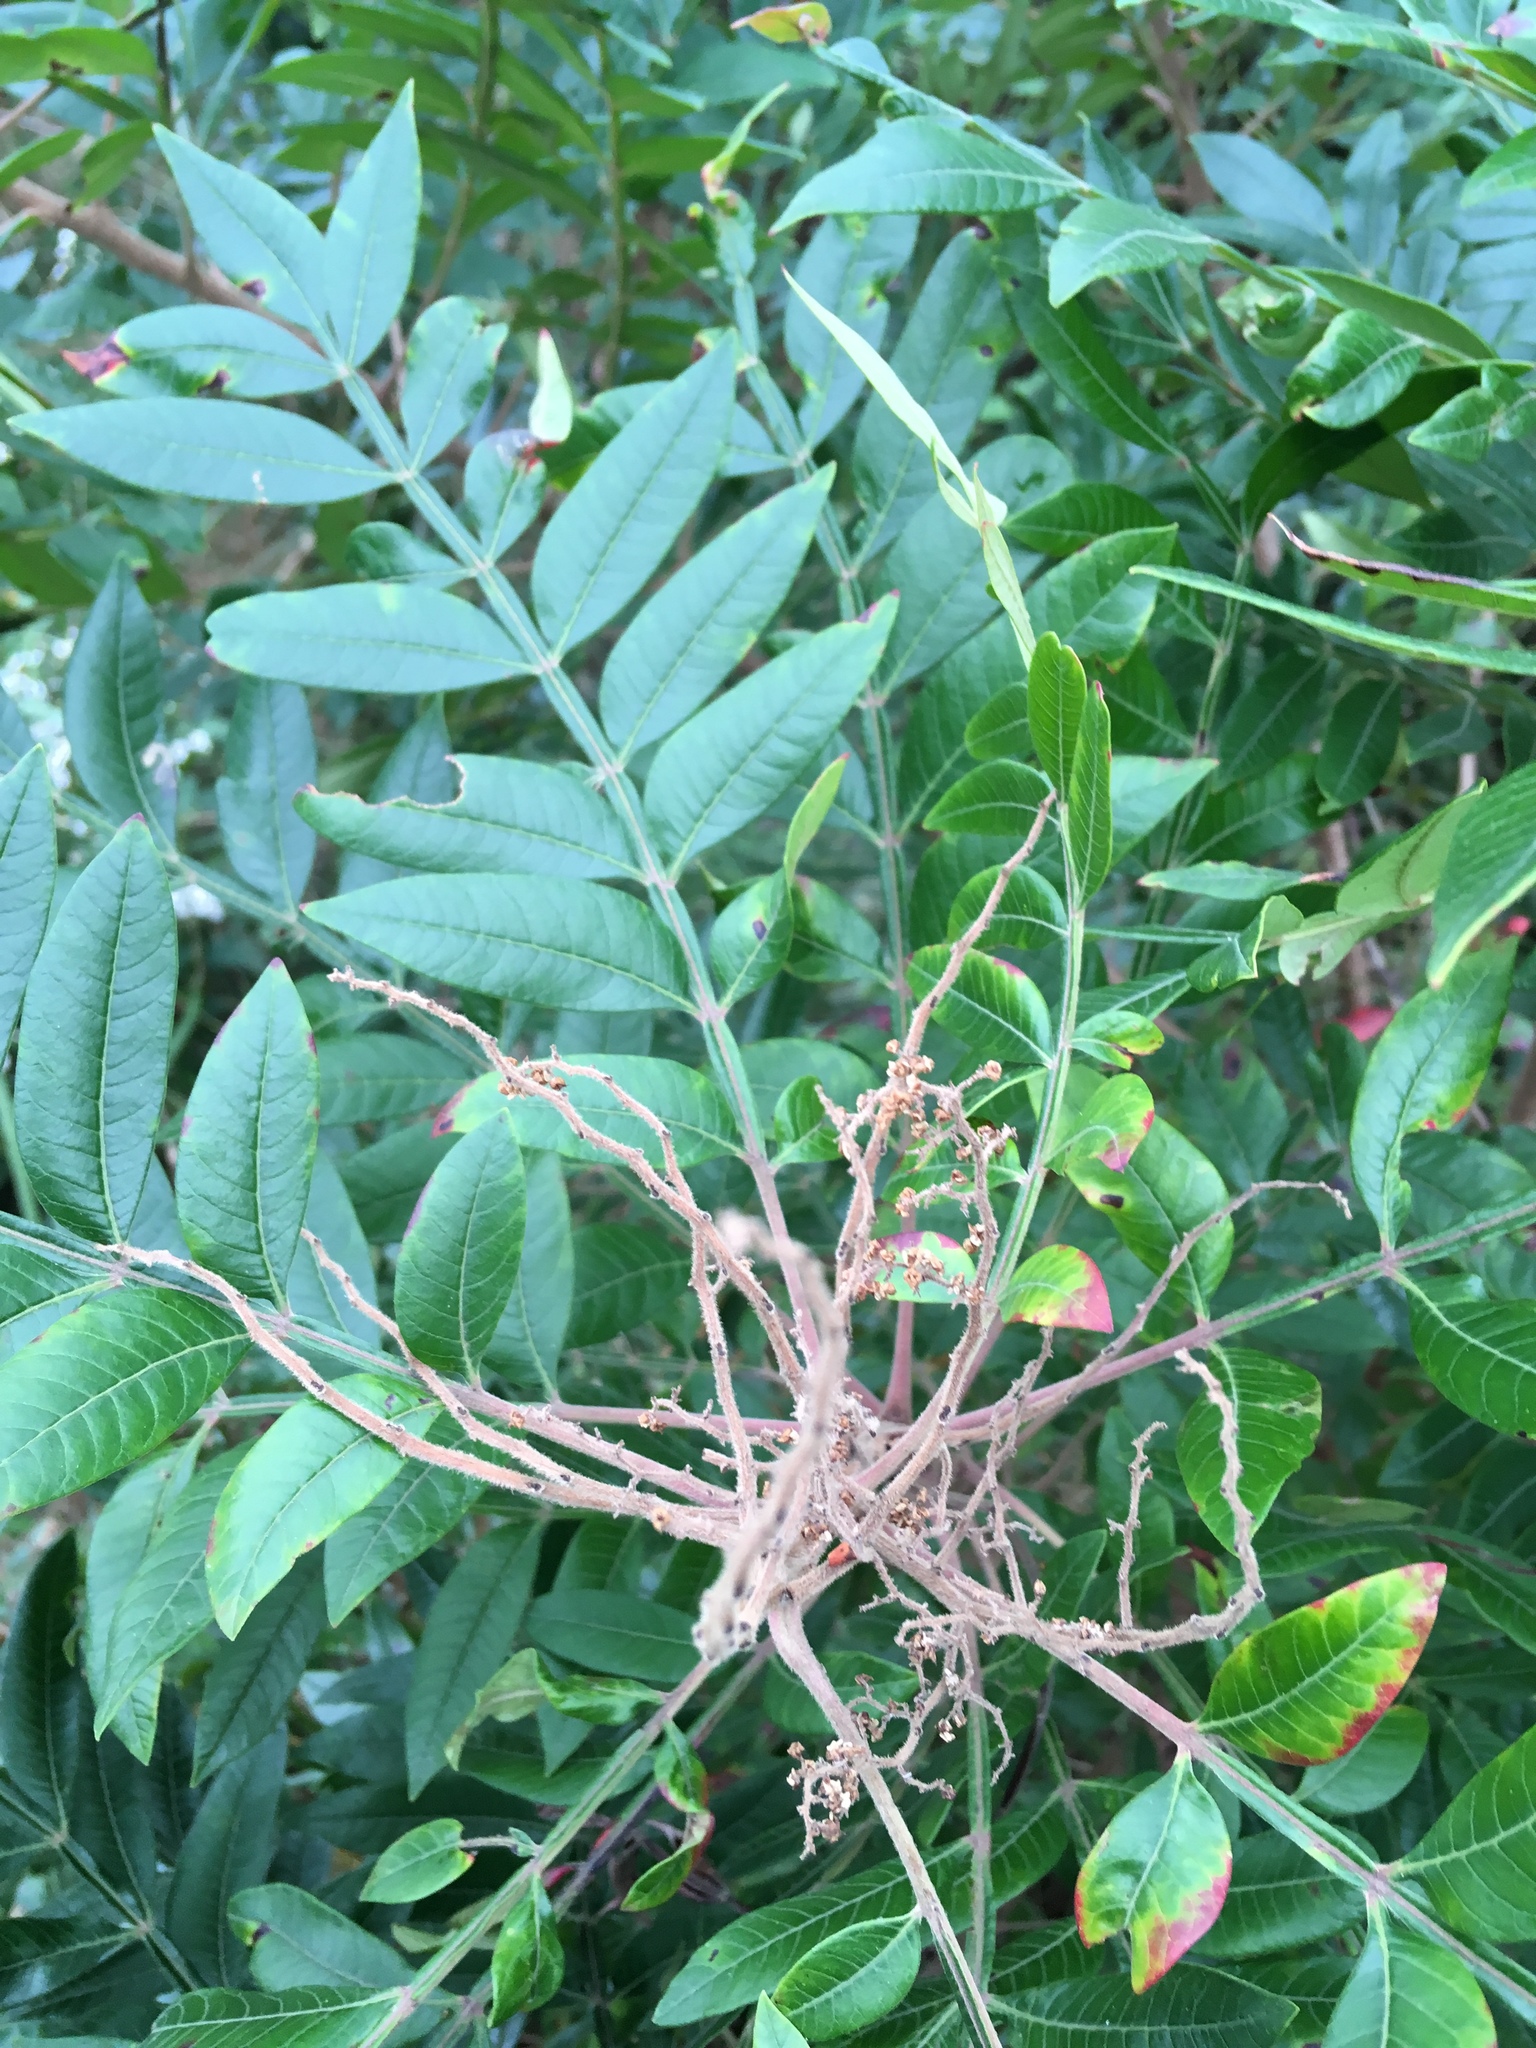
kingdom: Plantae
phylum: Tracheophyta
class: Magnoliopsida
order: Sapindales
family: Anacardiaceae
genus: Rhus
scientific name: Rhus copallina
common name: Shining sumac
